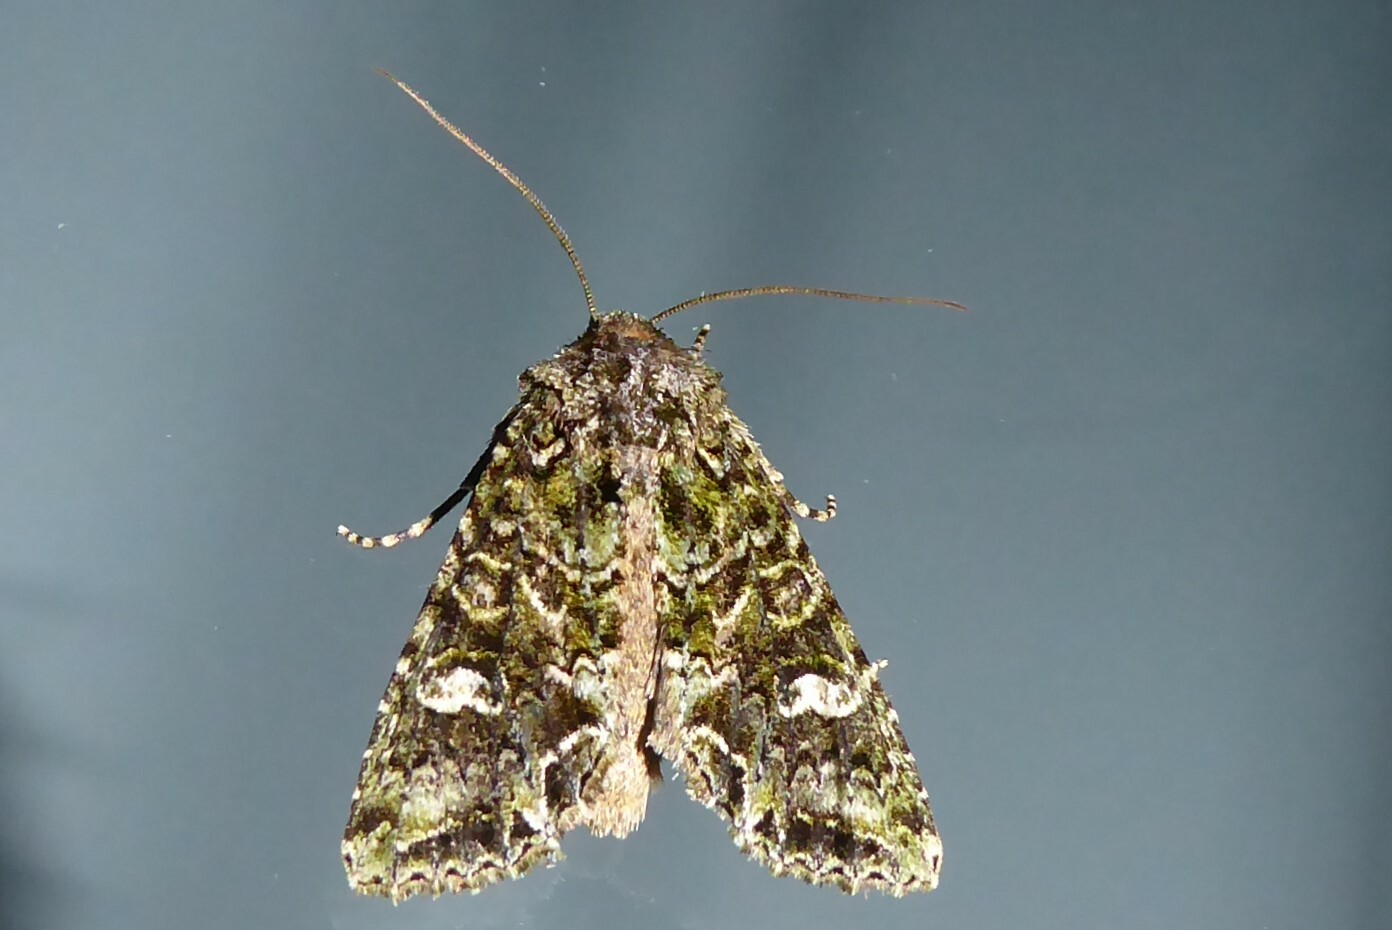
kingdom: Animalia
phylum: Arthropoda
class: Insecta
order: Lepidoptera
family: Noctuidae
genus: Ichneutica
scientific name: Ichneutica
